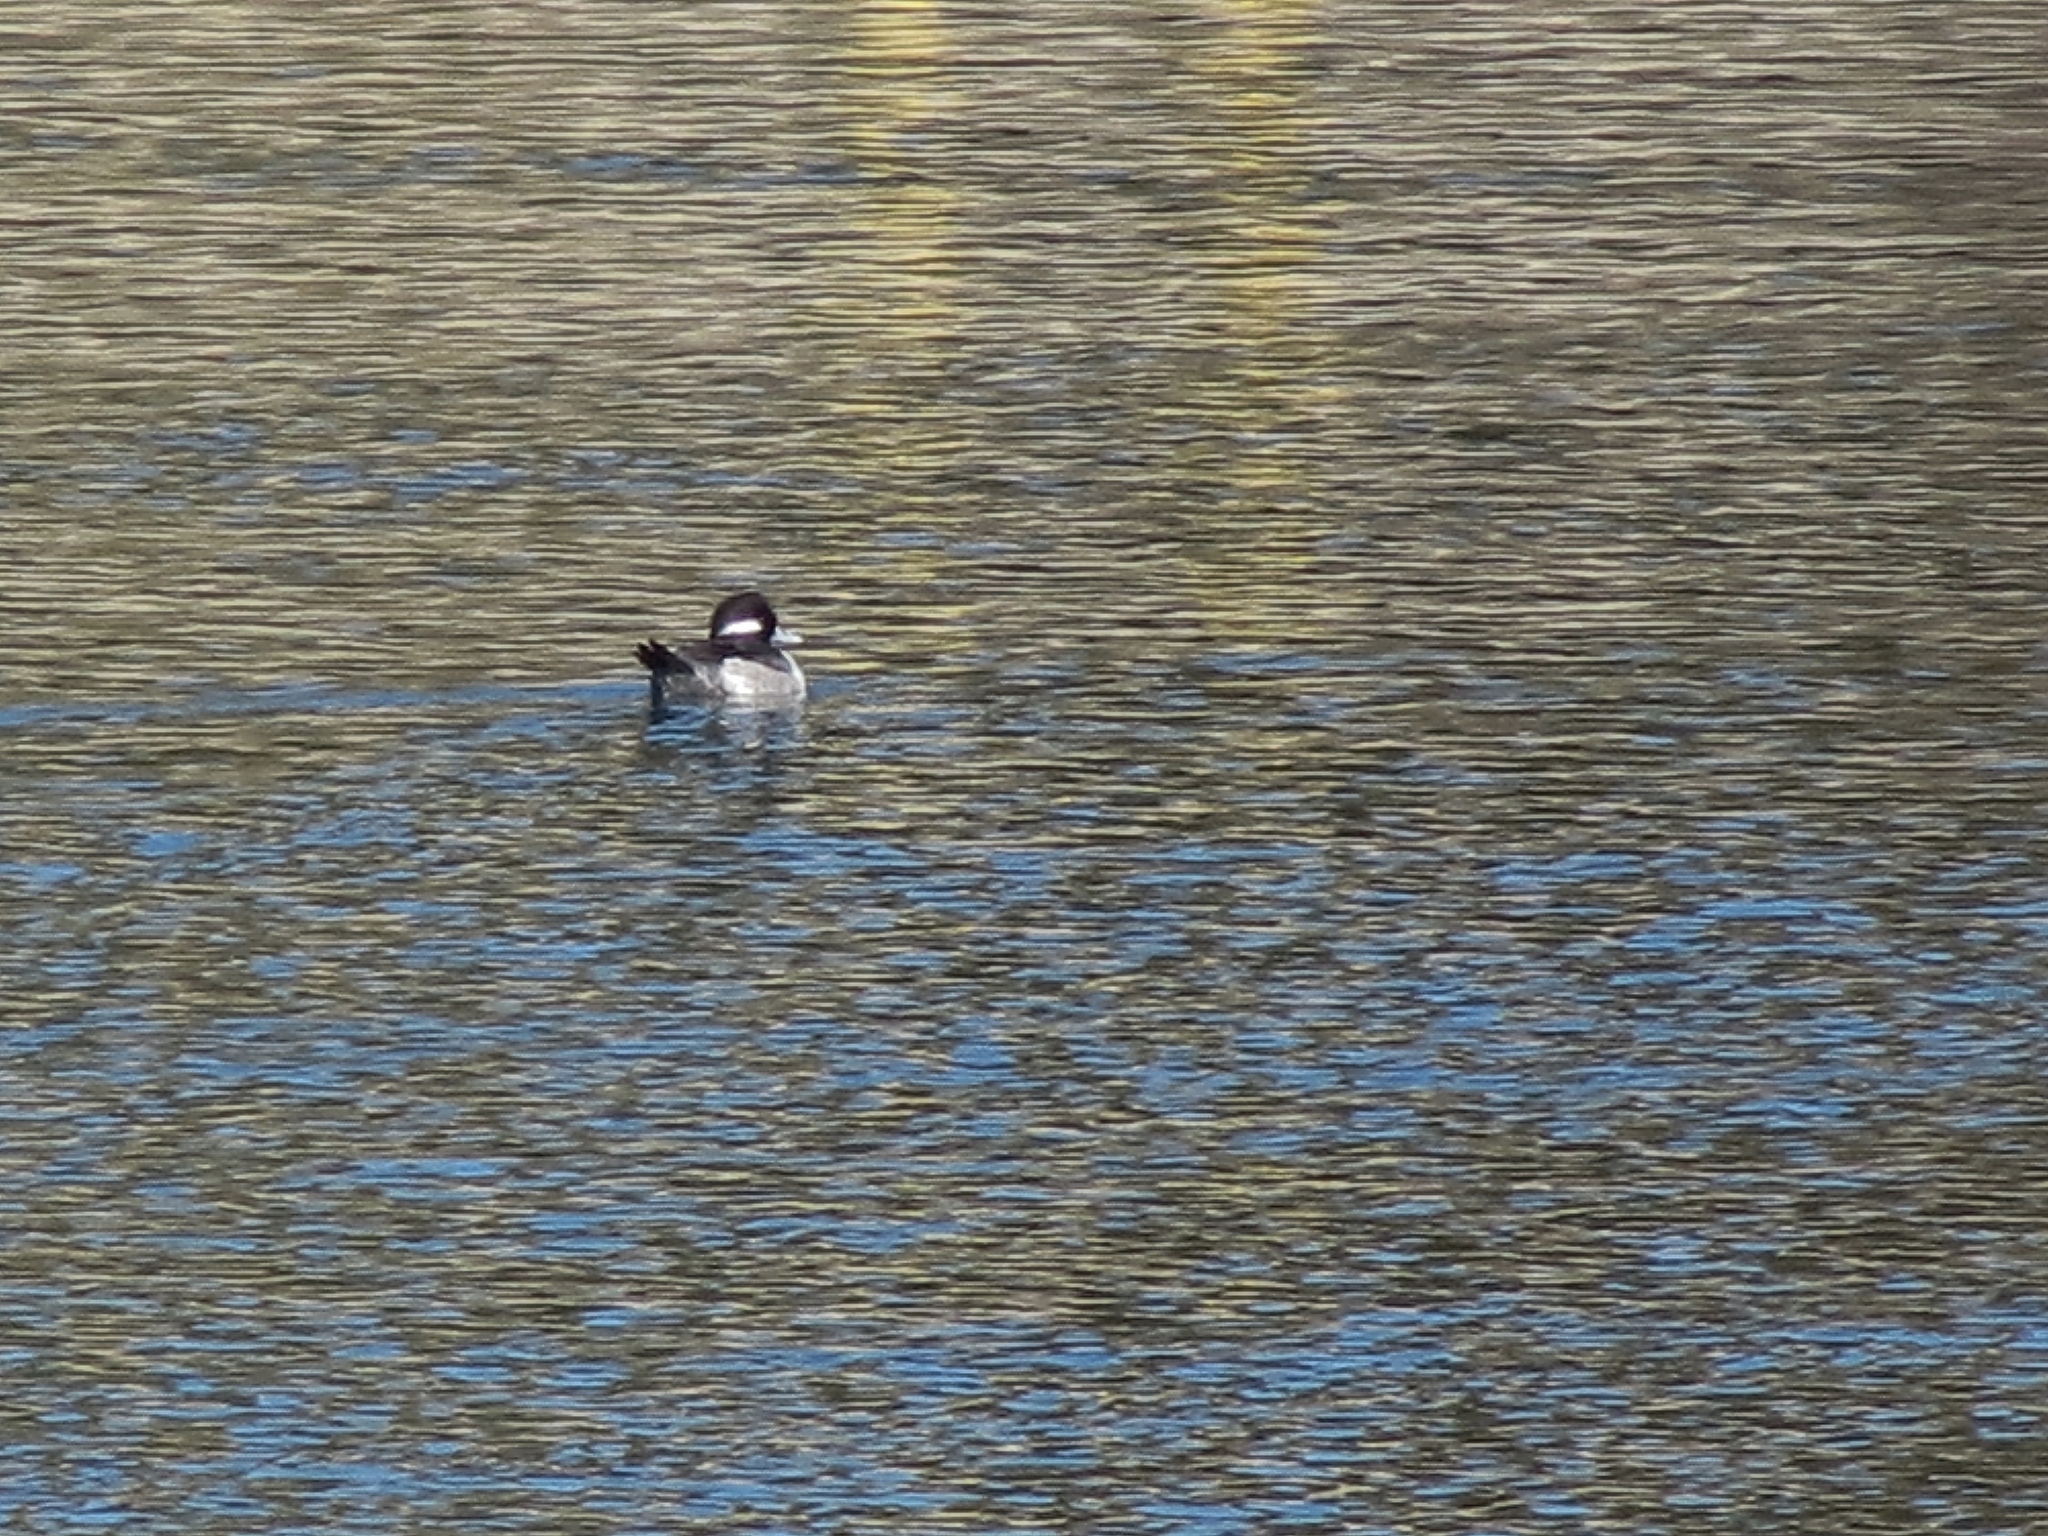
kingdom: Animalia
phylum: Chordata
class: Aves
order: Anseriformes
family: Anatidae
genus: Bucephala
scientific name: Bucephala albeola
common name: Bufflehead
